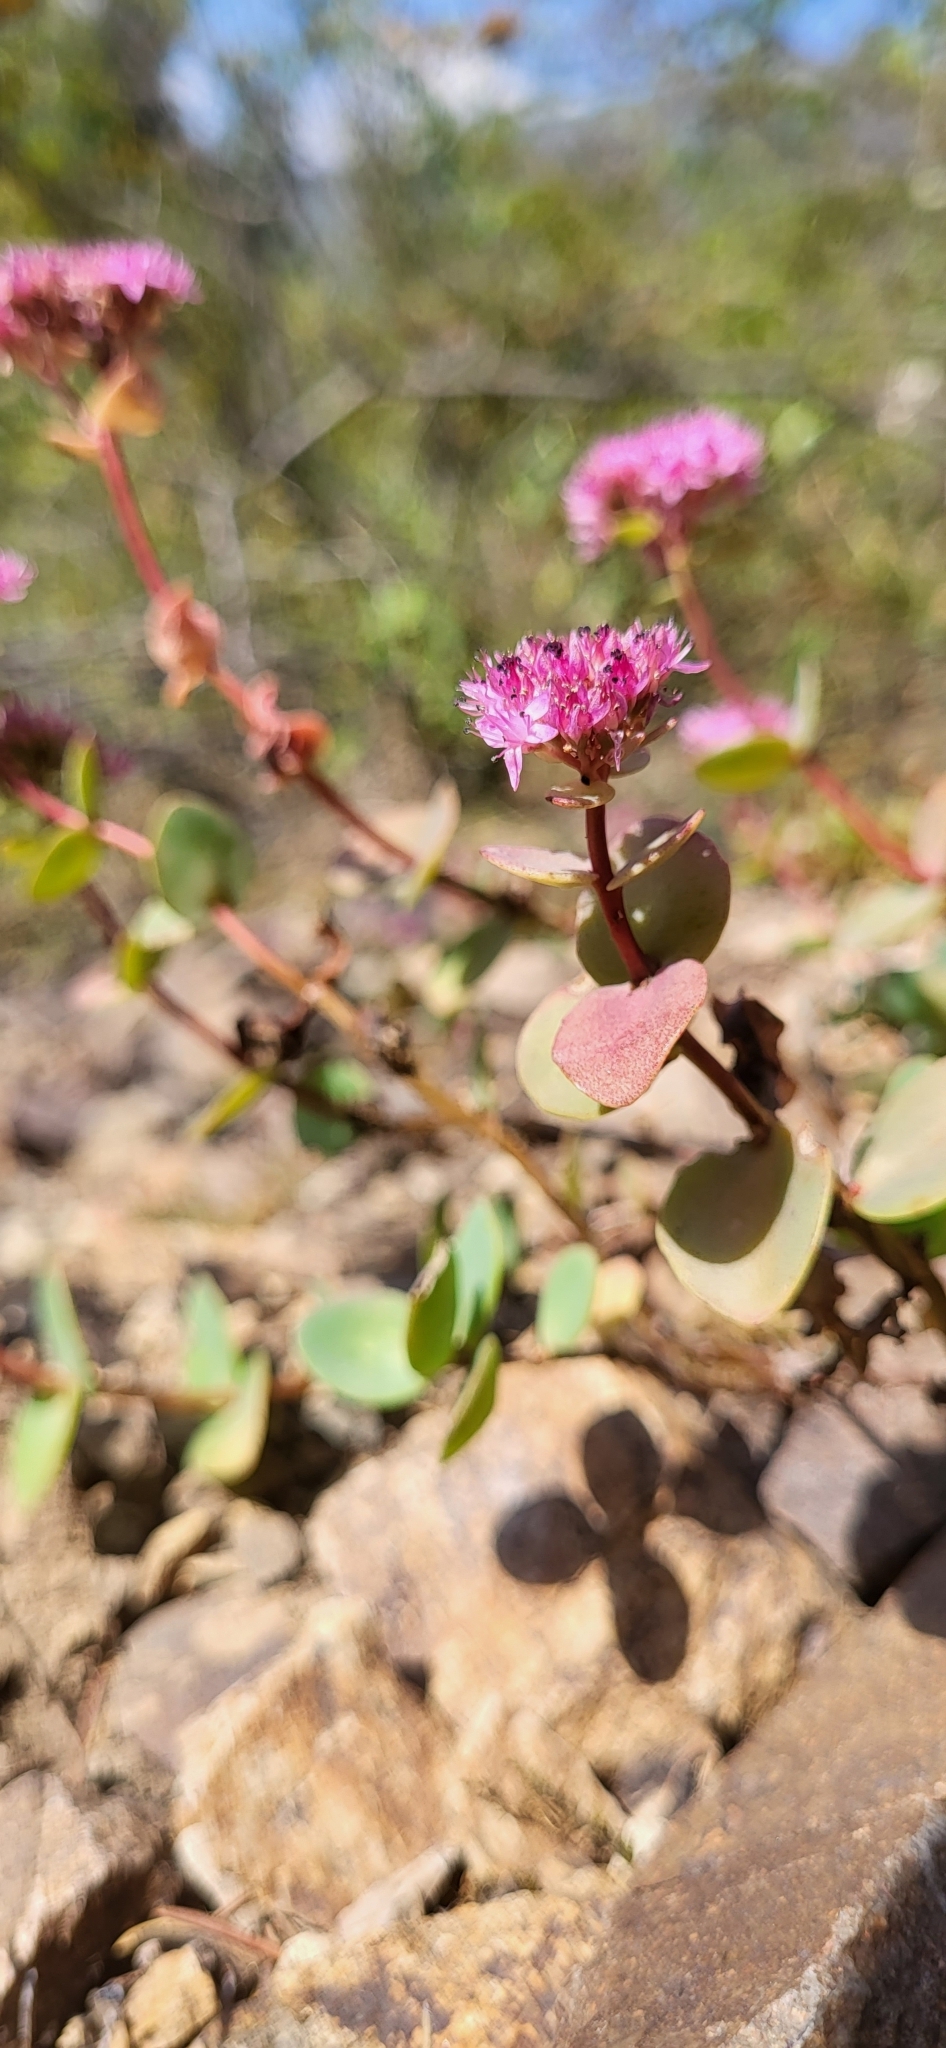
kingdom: Plantae
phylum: Tracheophyta
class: Magnoliopsida
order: Saxifragales
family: Crassulaceae
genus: Hylotelephium
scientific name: Hylotelephium ewersii
